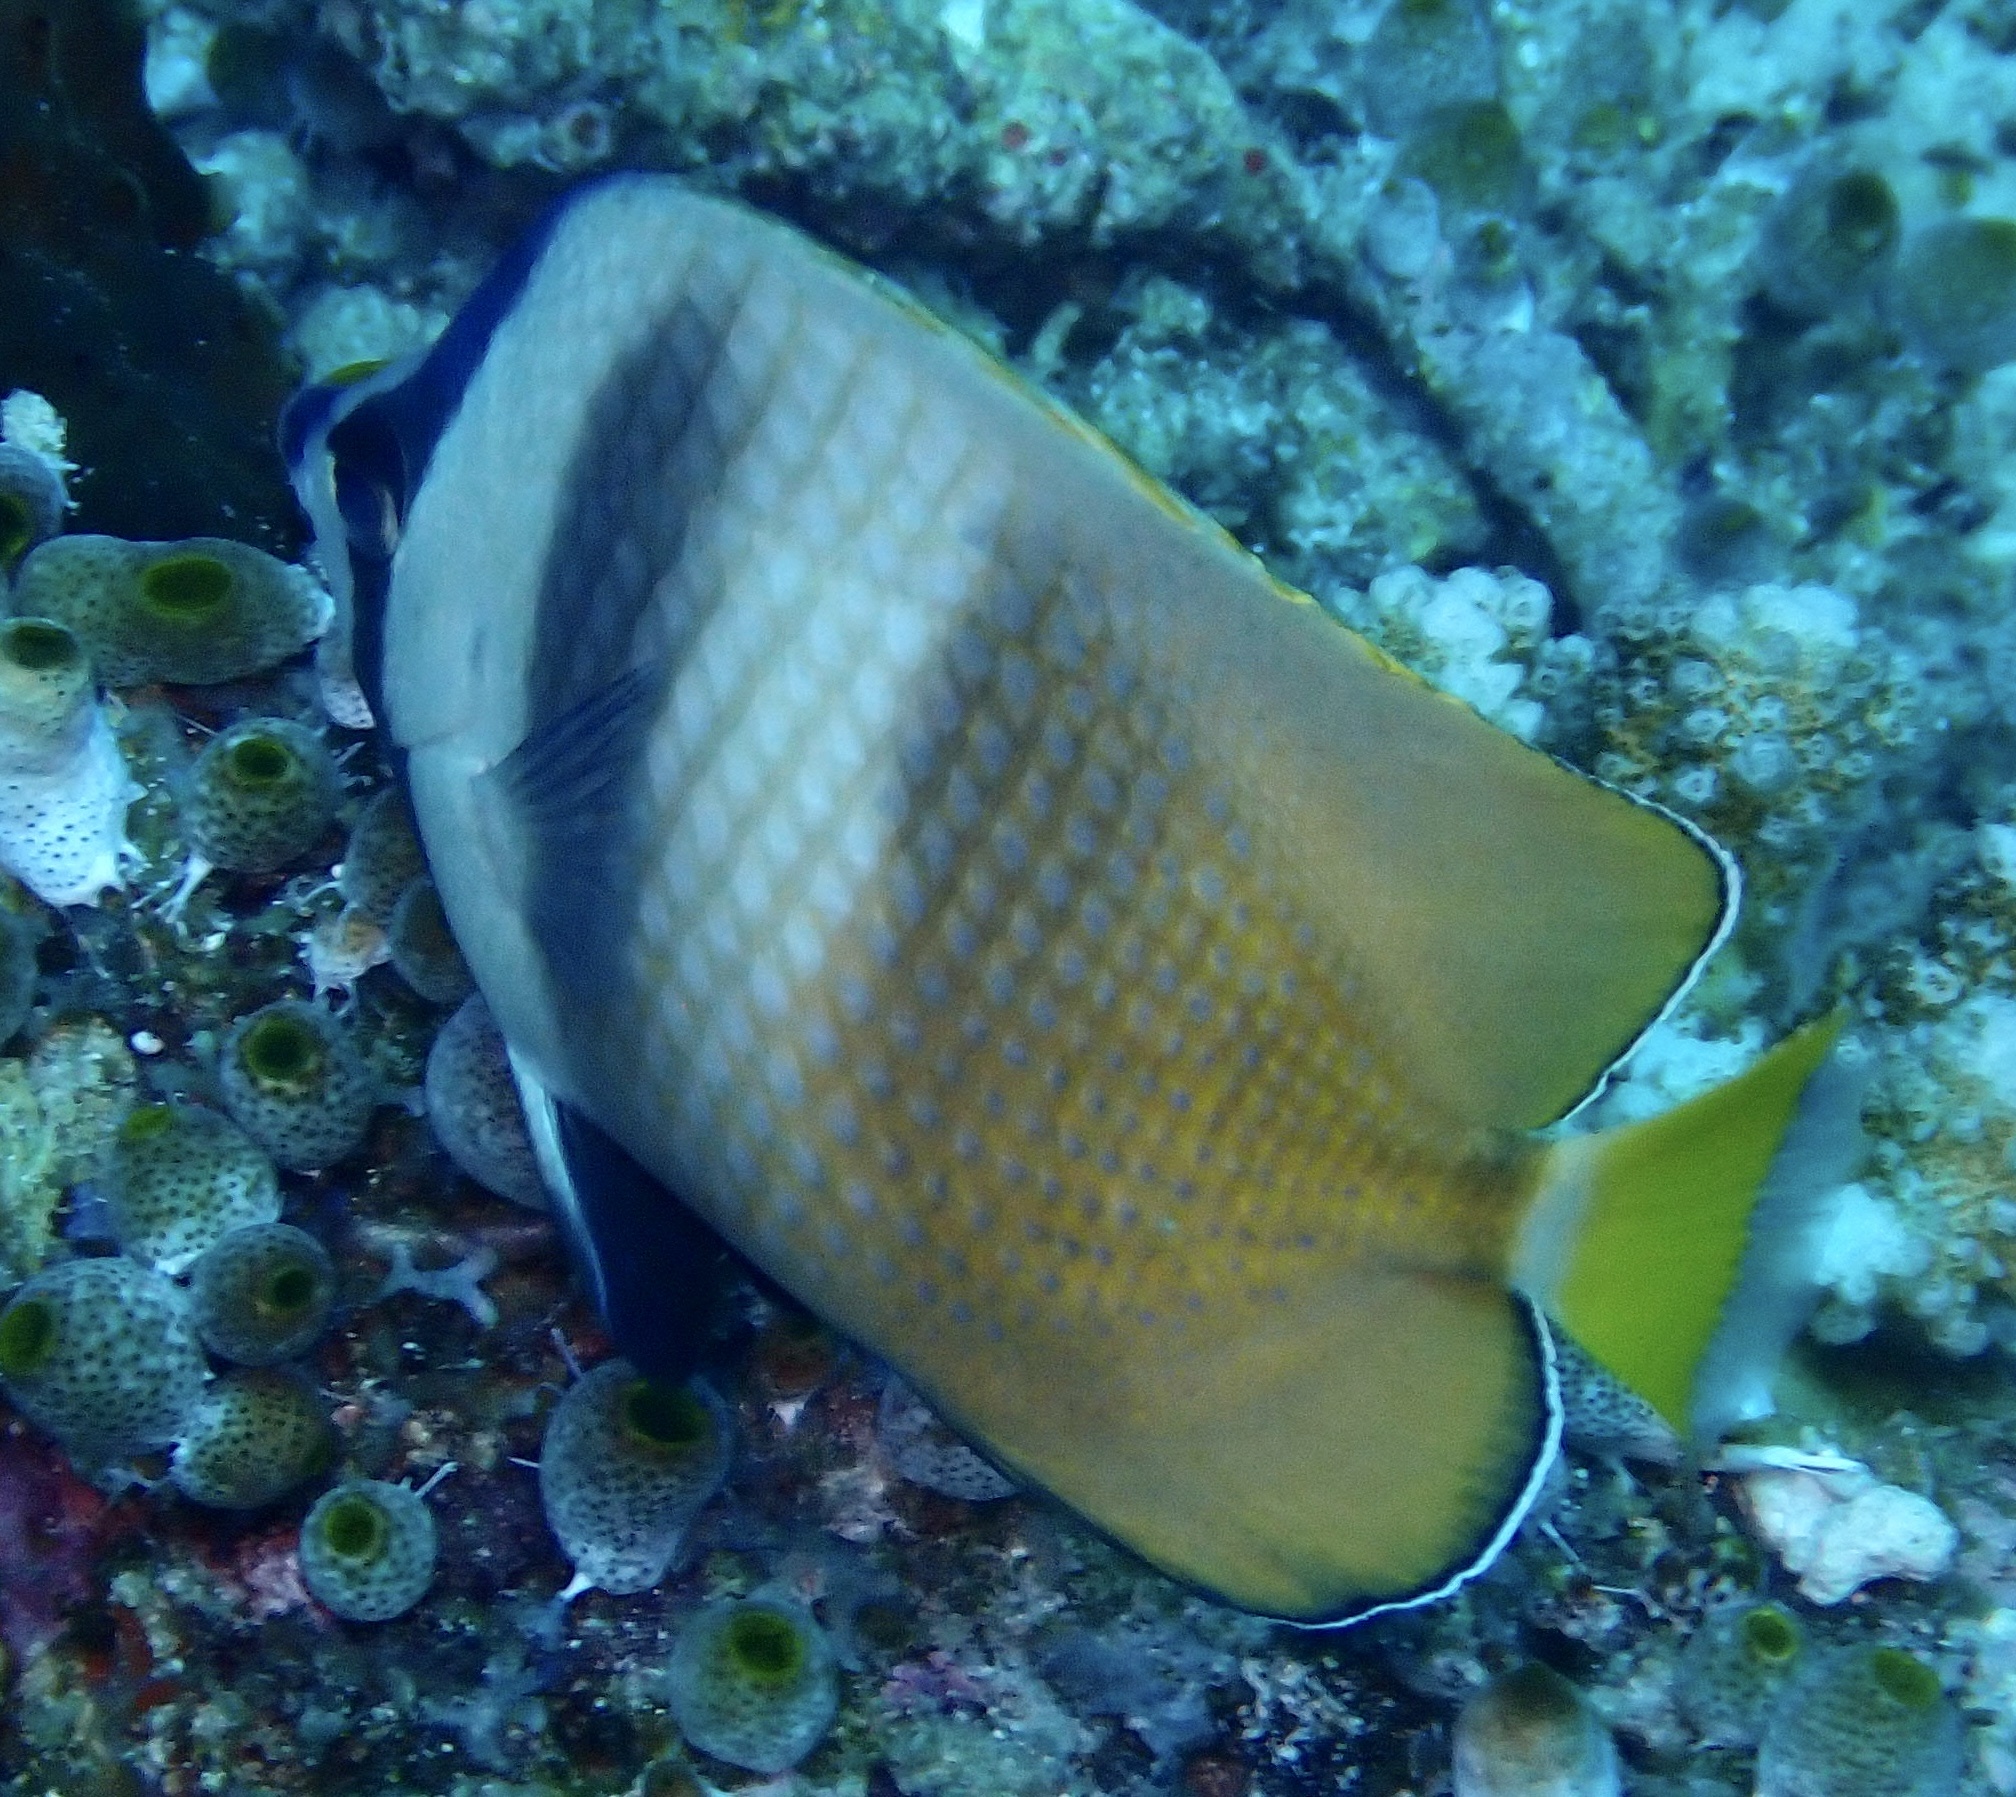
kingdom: Animalia
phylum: Chordata
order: Perciformes
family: Chaetodontidae
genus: Chaetodon
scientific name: Chaetodon kleinii
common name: Klein's butterflyfish
